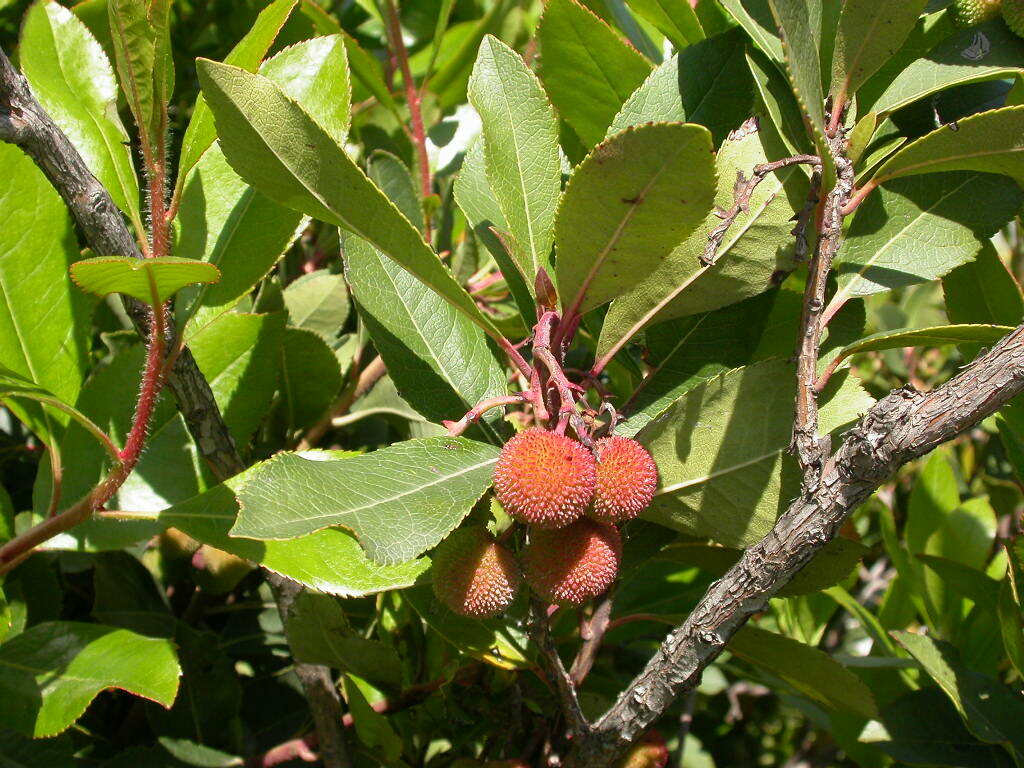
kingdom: Plantae
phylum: Tracheophyta
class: Magnoliopsida
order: Ericales
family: Ericaceae
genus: Arbutus
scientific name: Arbutus unedo
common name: Strawberry-tree
